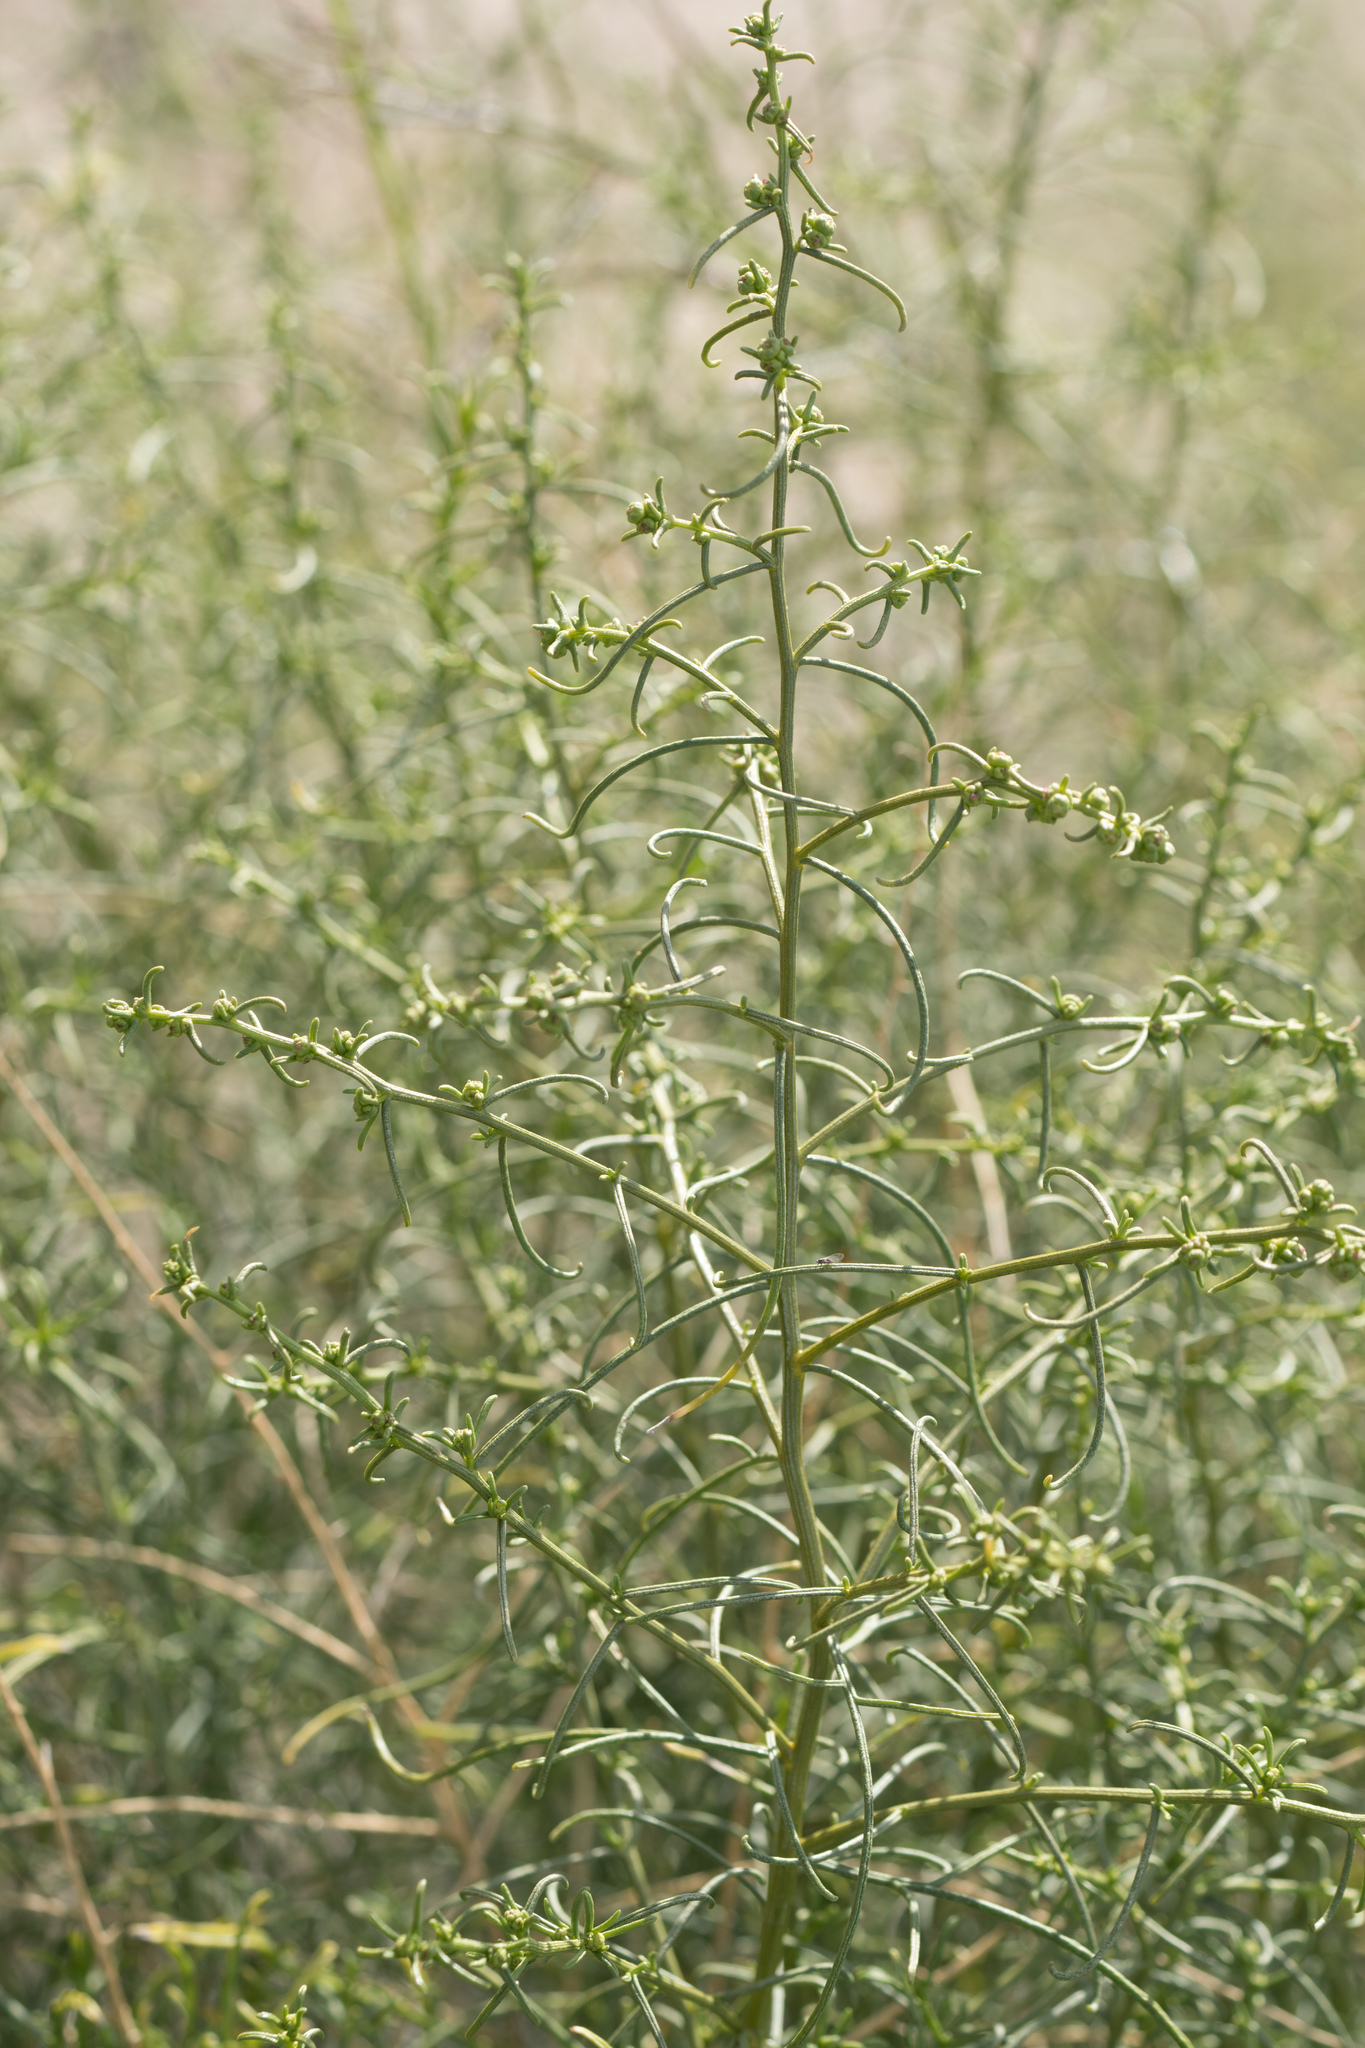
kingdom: Plantae
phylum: Tracheophyta
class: Magnoliopsida
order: Asterales
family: Asteraceae
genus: Ambrosia
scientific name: Ambrosia salsola
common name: Burrobrush
